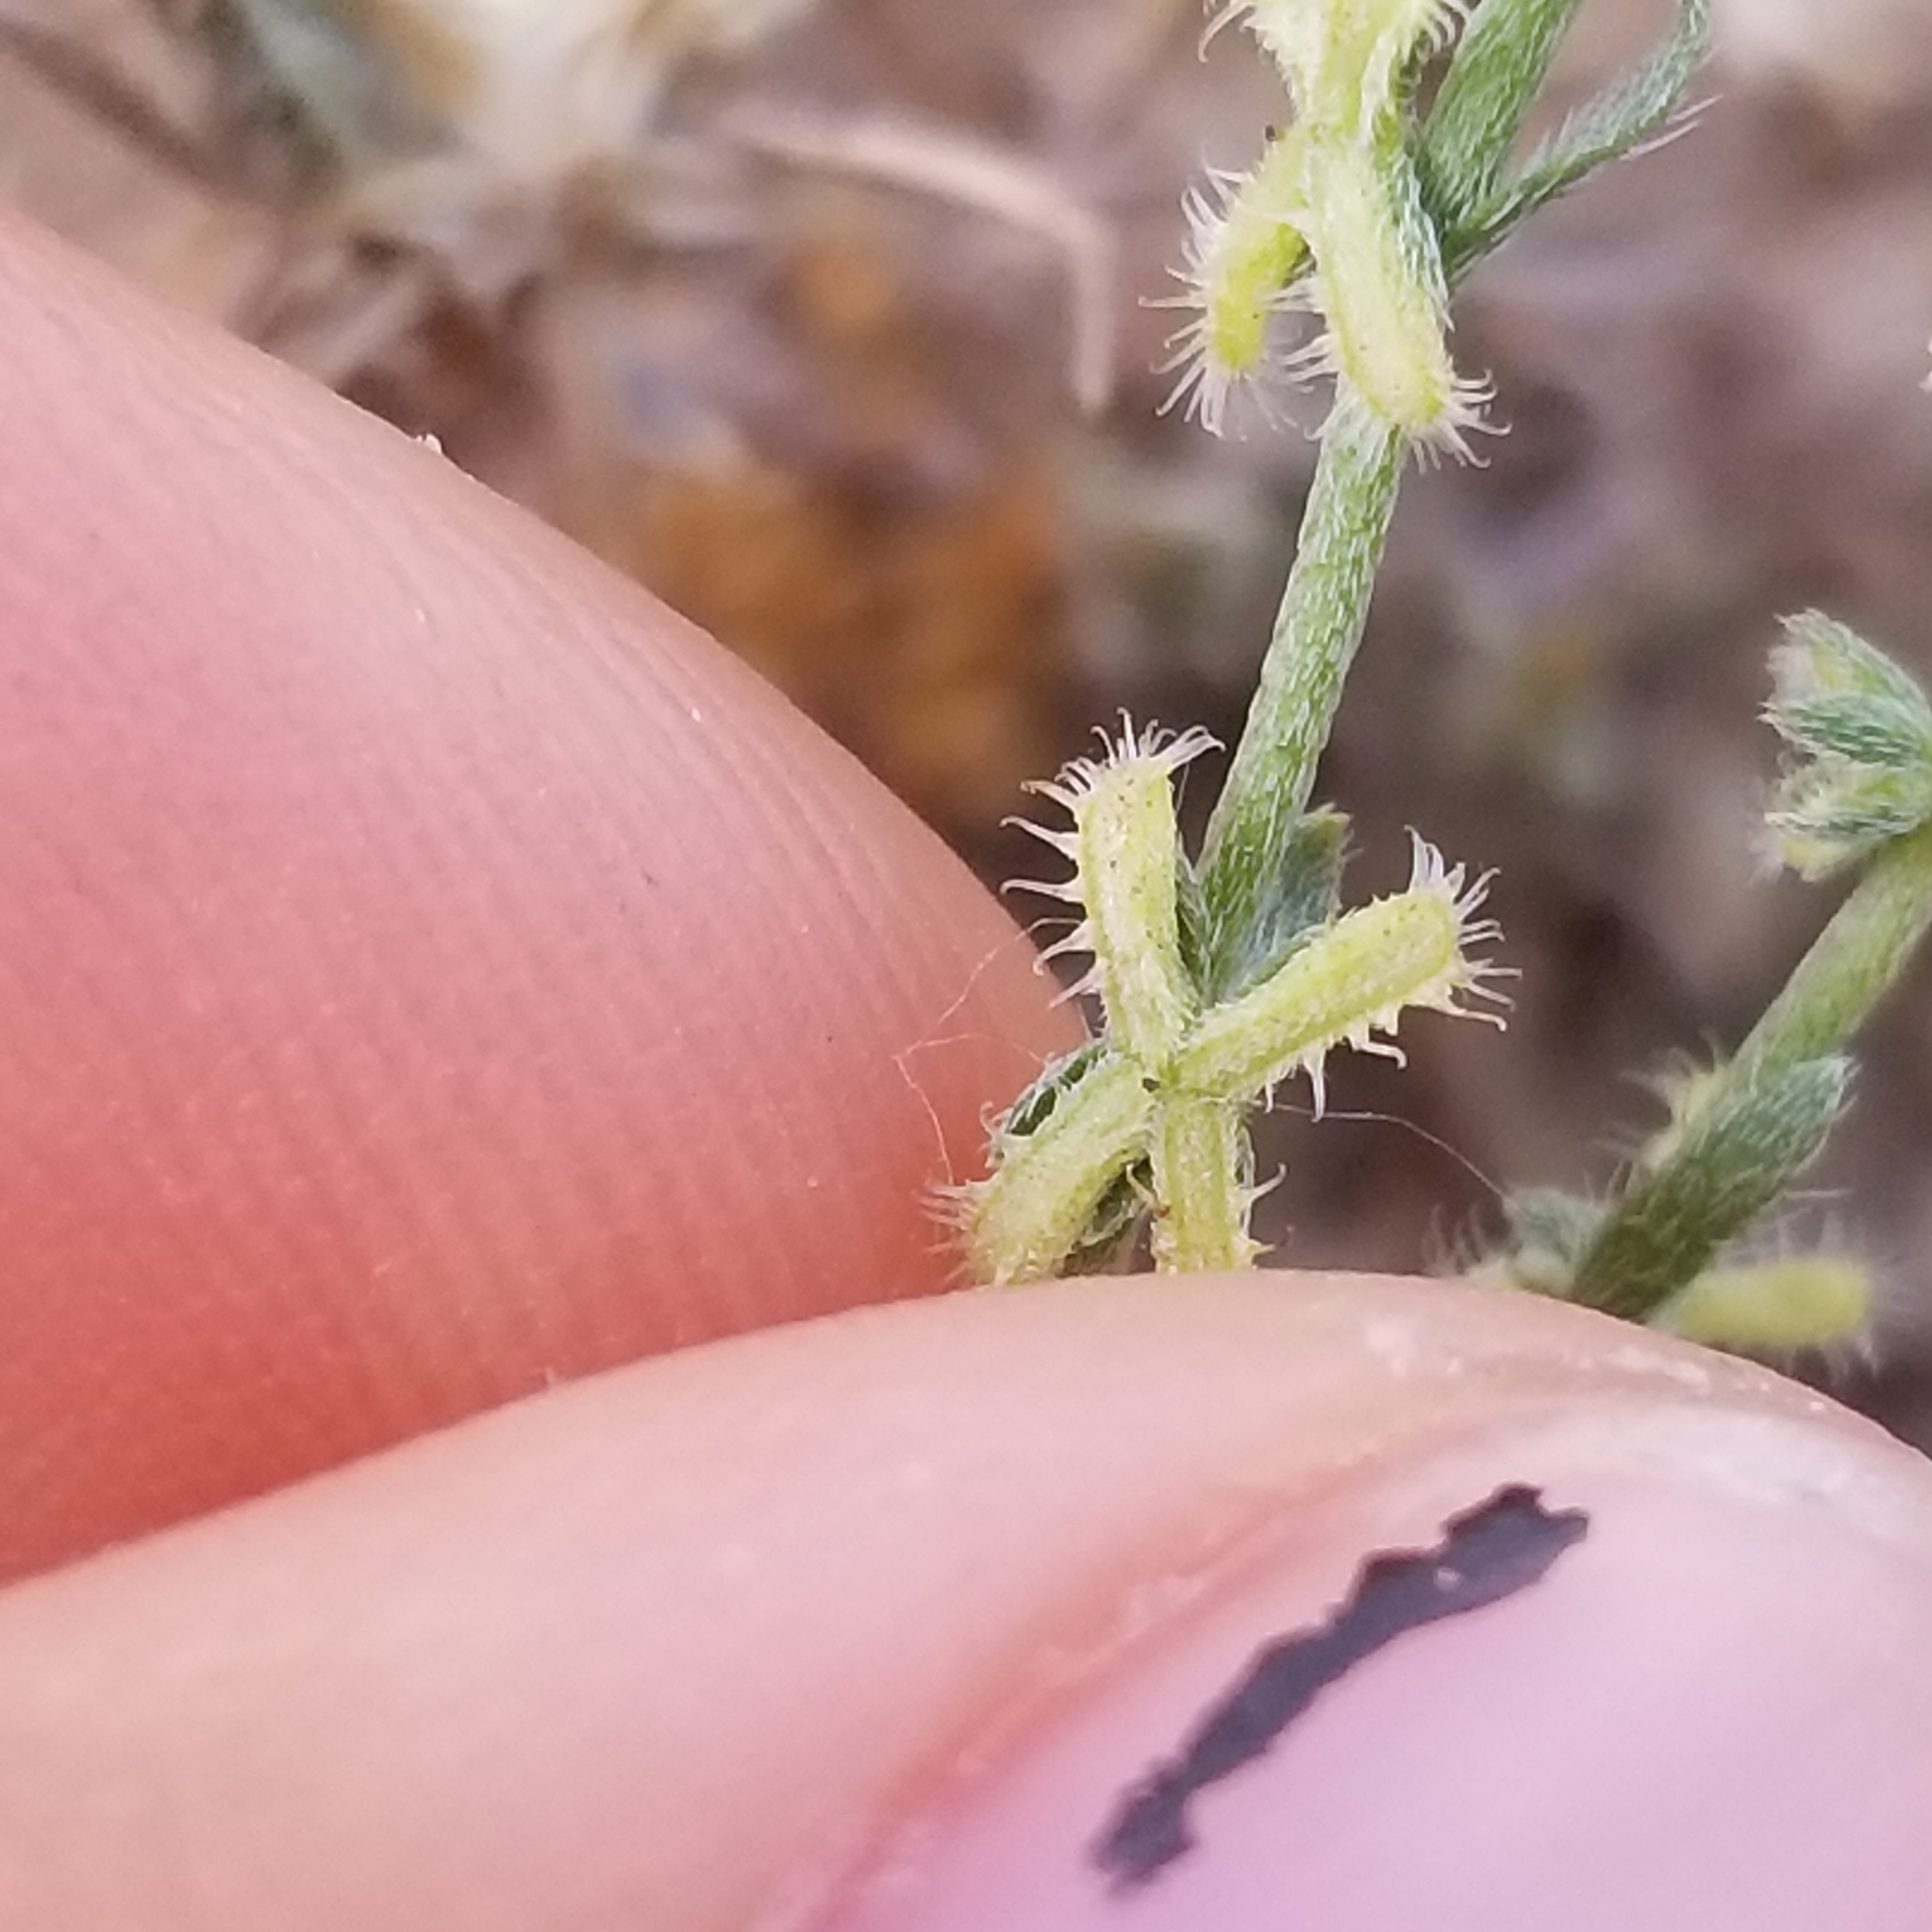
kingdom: Plantae
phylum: Tracheophyta
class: Magnoliopsida
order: Boraginales
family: Boraginaceae
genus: Pectocarya
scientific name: Pectocarya linearis
